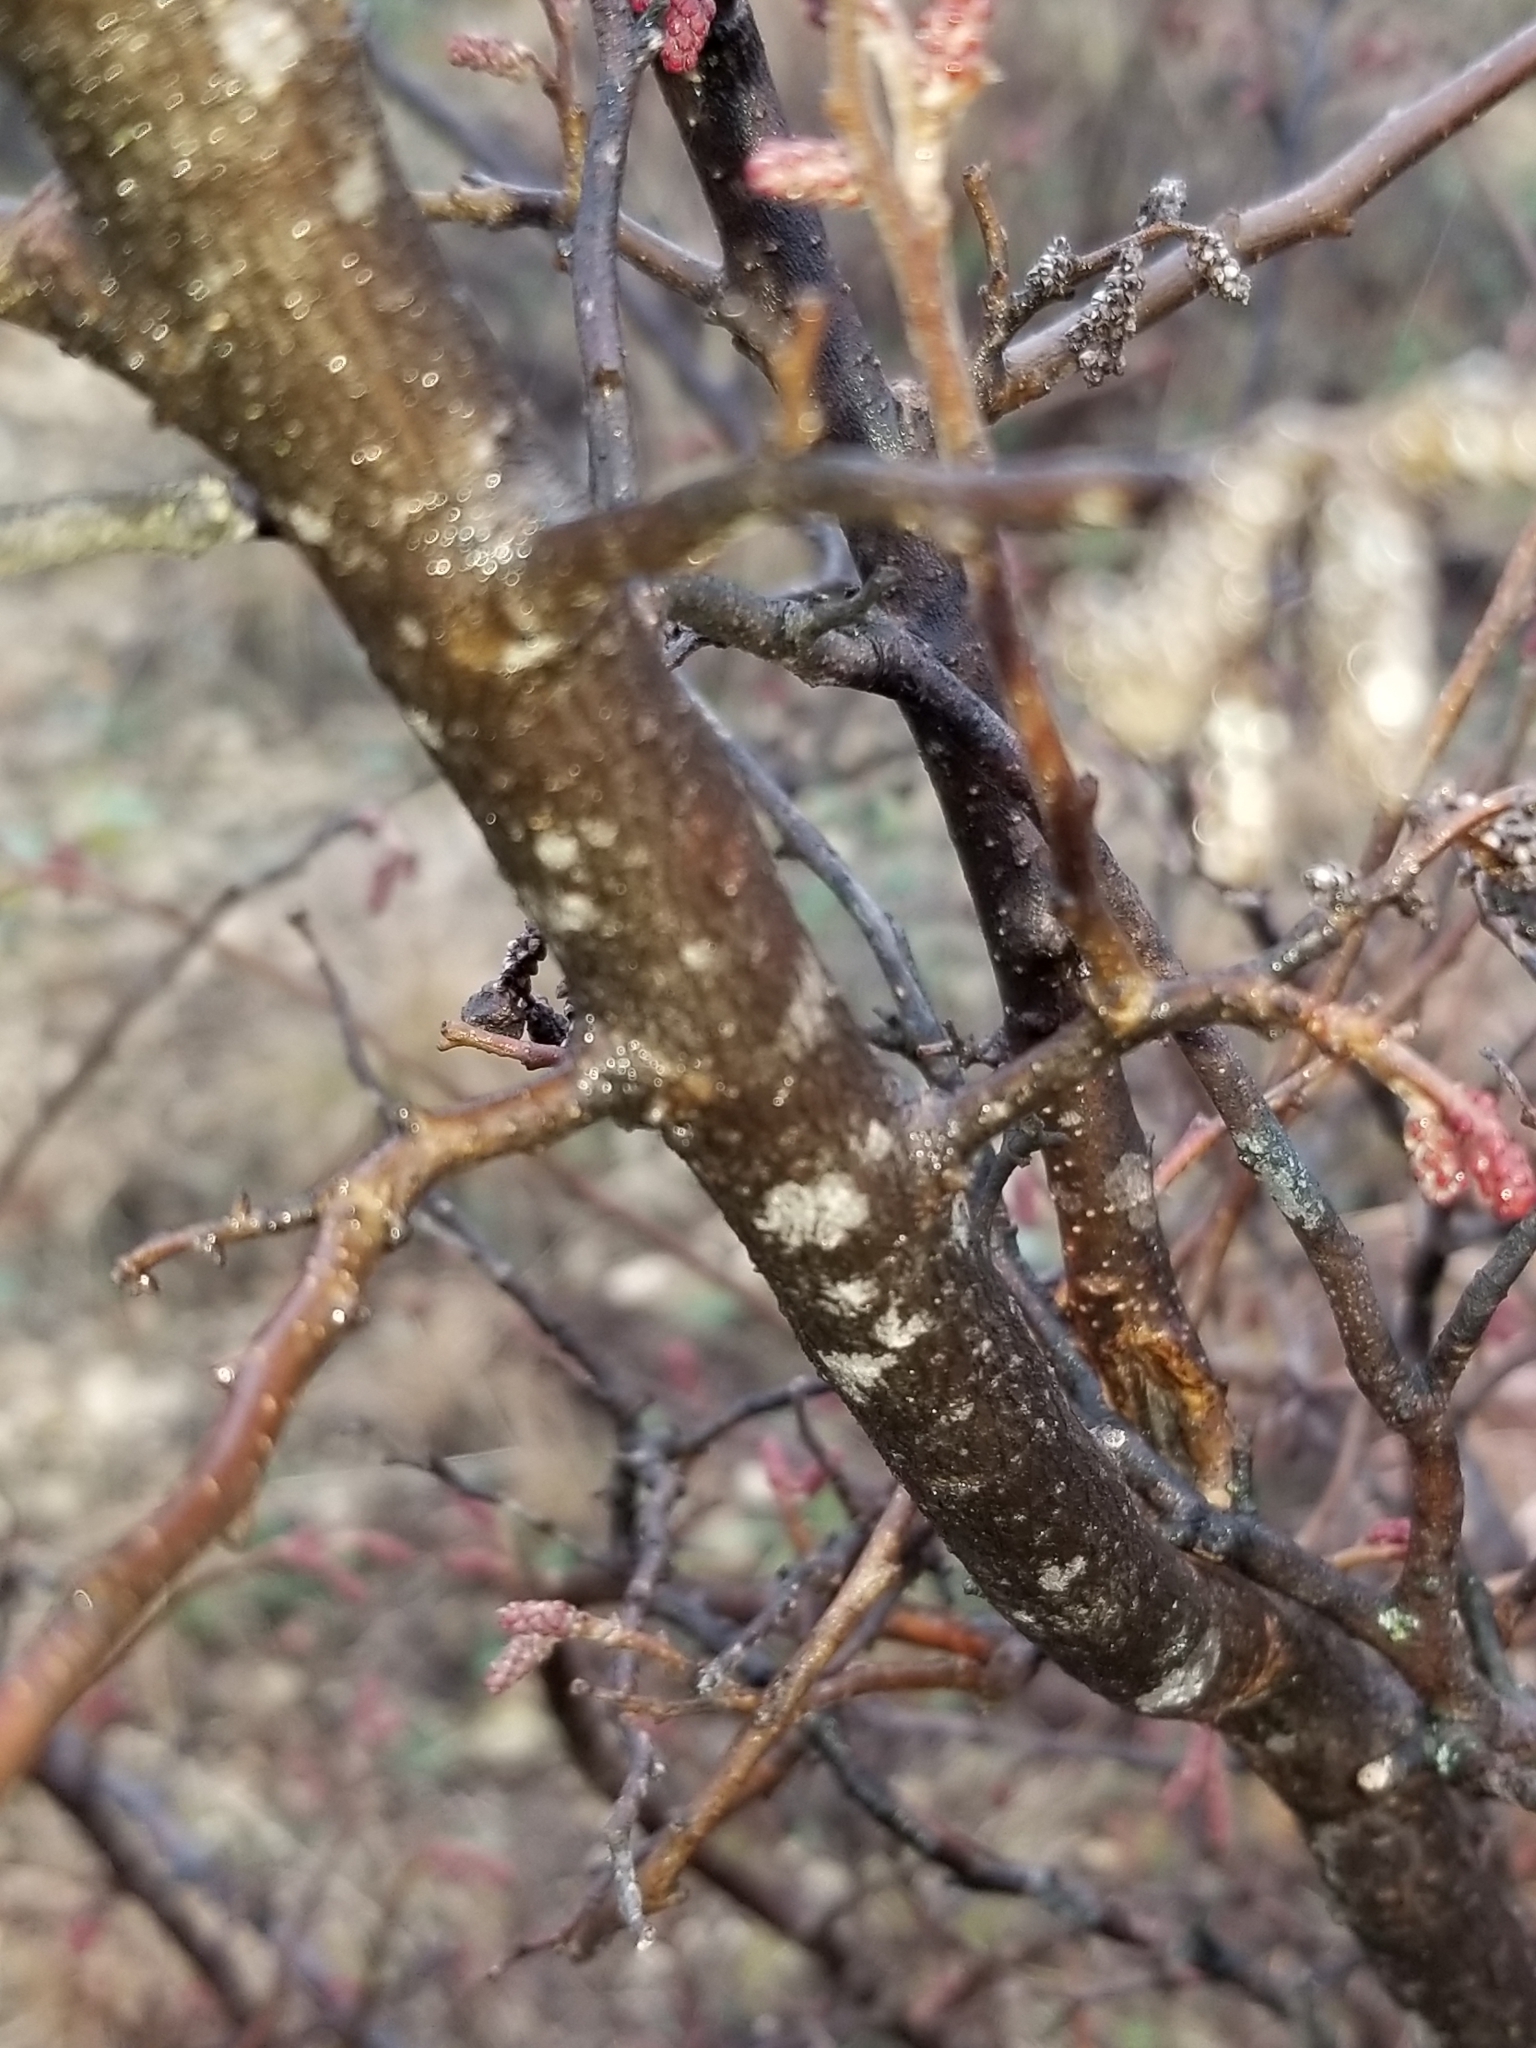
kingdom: Plantae
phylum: Tracheophyta
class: Magnoliopsida
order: Sapindales
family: Anacardiaceae
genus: Rhus
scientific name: Rhus aromatica
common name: Aromatic sumac
